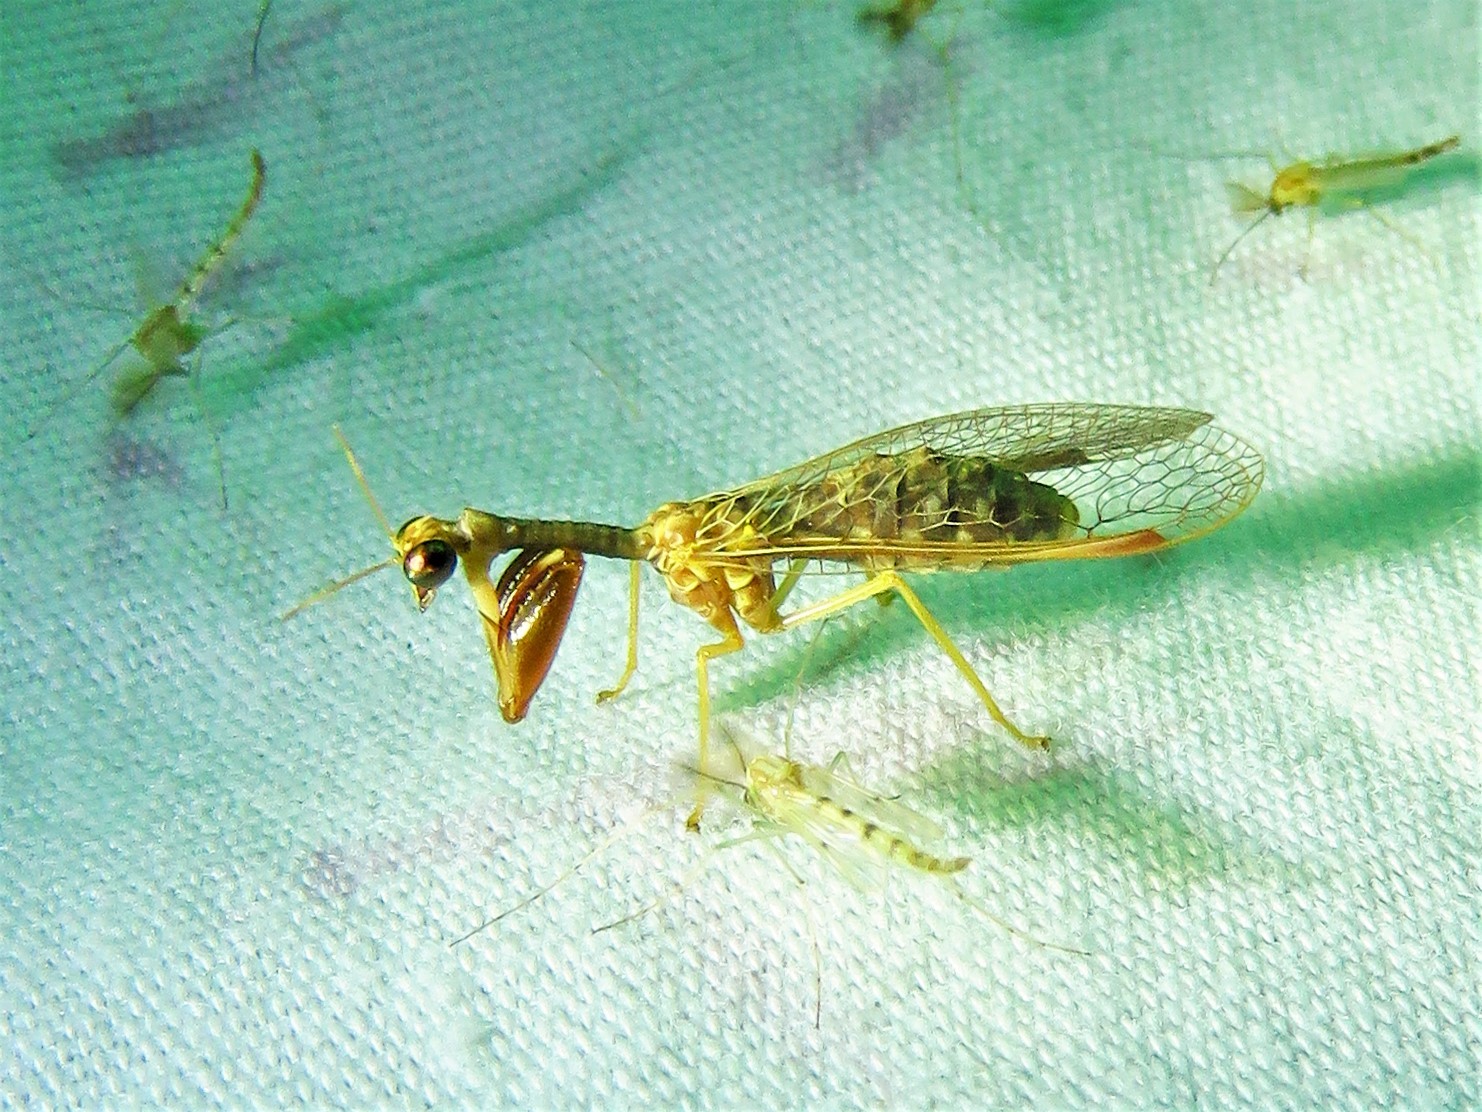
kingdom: Animalia
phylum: Arthropoda
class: Insecta
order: Neuroptera
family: Mantispidae
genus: Dicromantispa
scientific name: Dicromantispa sayi
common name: Say's mantidfly
